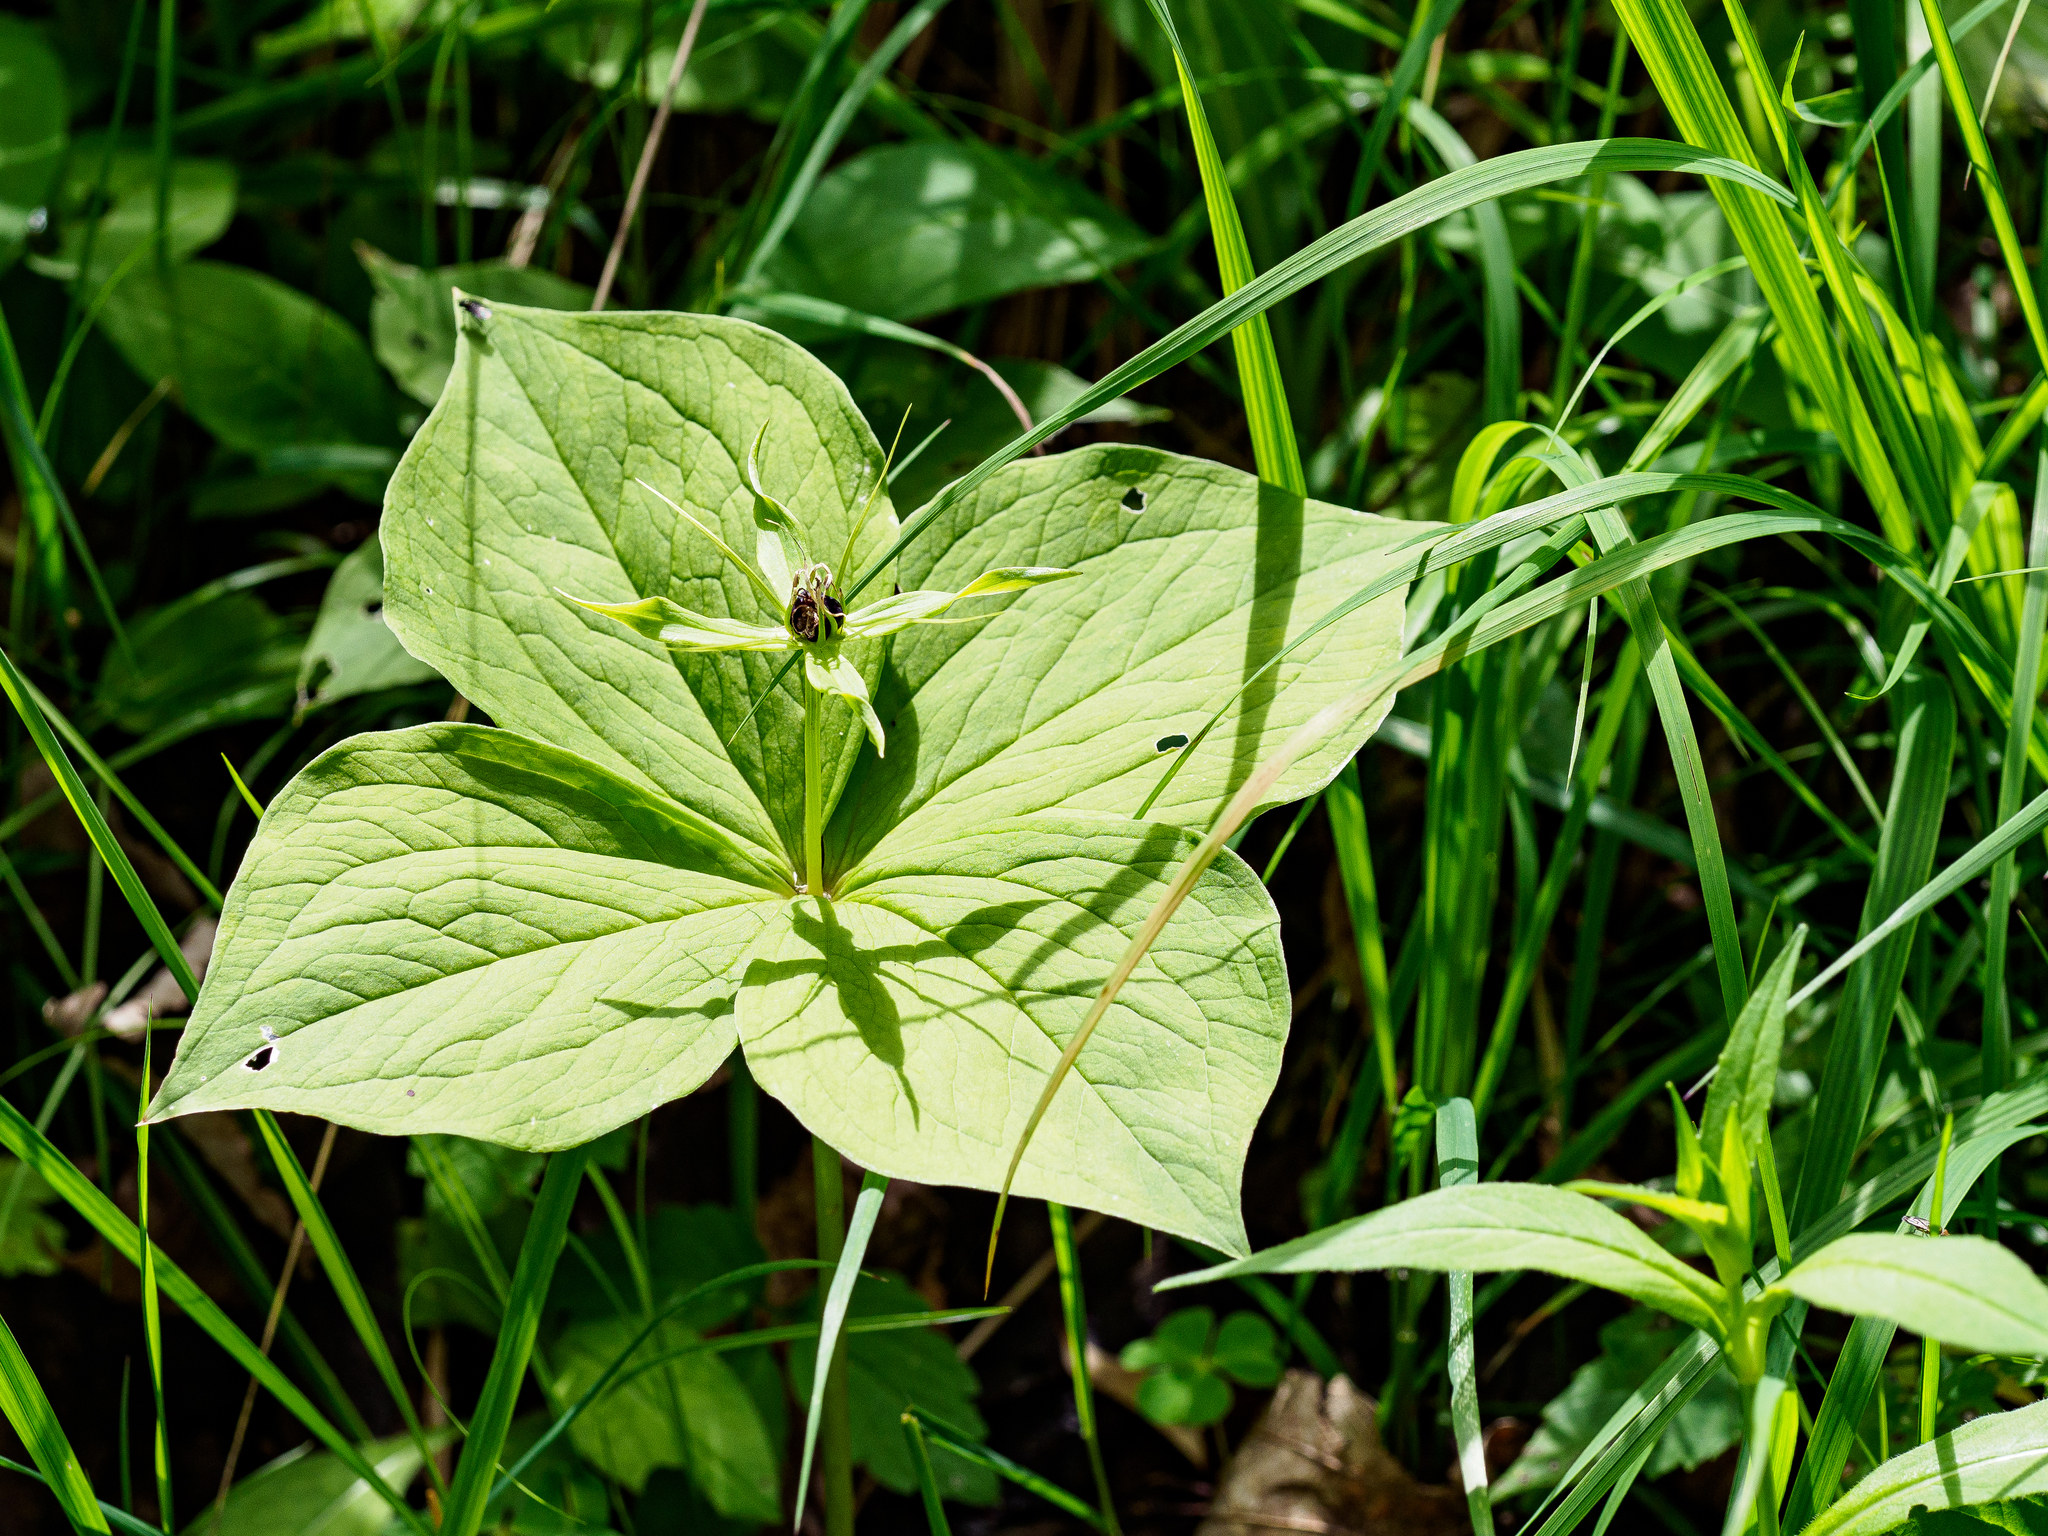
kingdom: Plantae
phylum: Tracheophyta
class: Liliopsida
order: Liliales
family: Melanthiaceae
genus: Paris
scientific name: Paris quadrifolia
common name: Herb-paris
